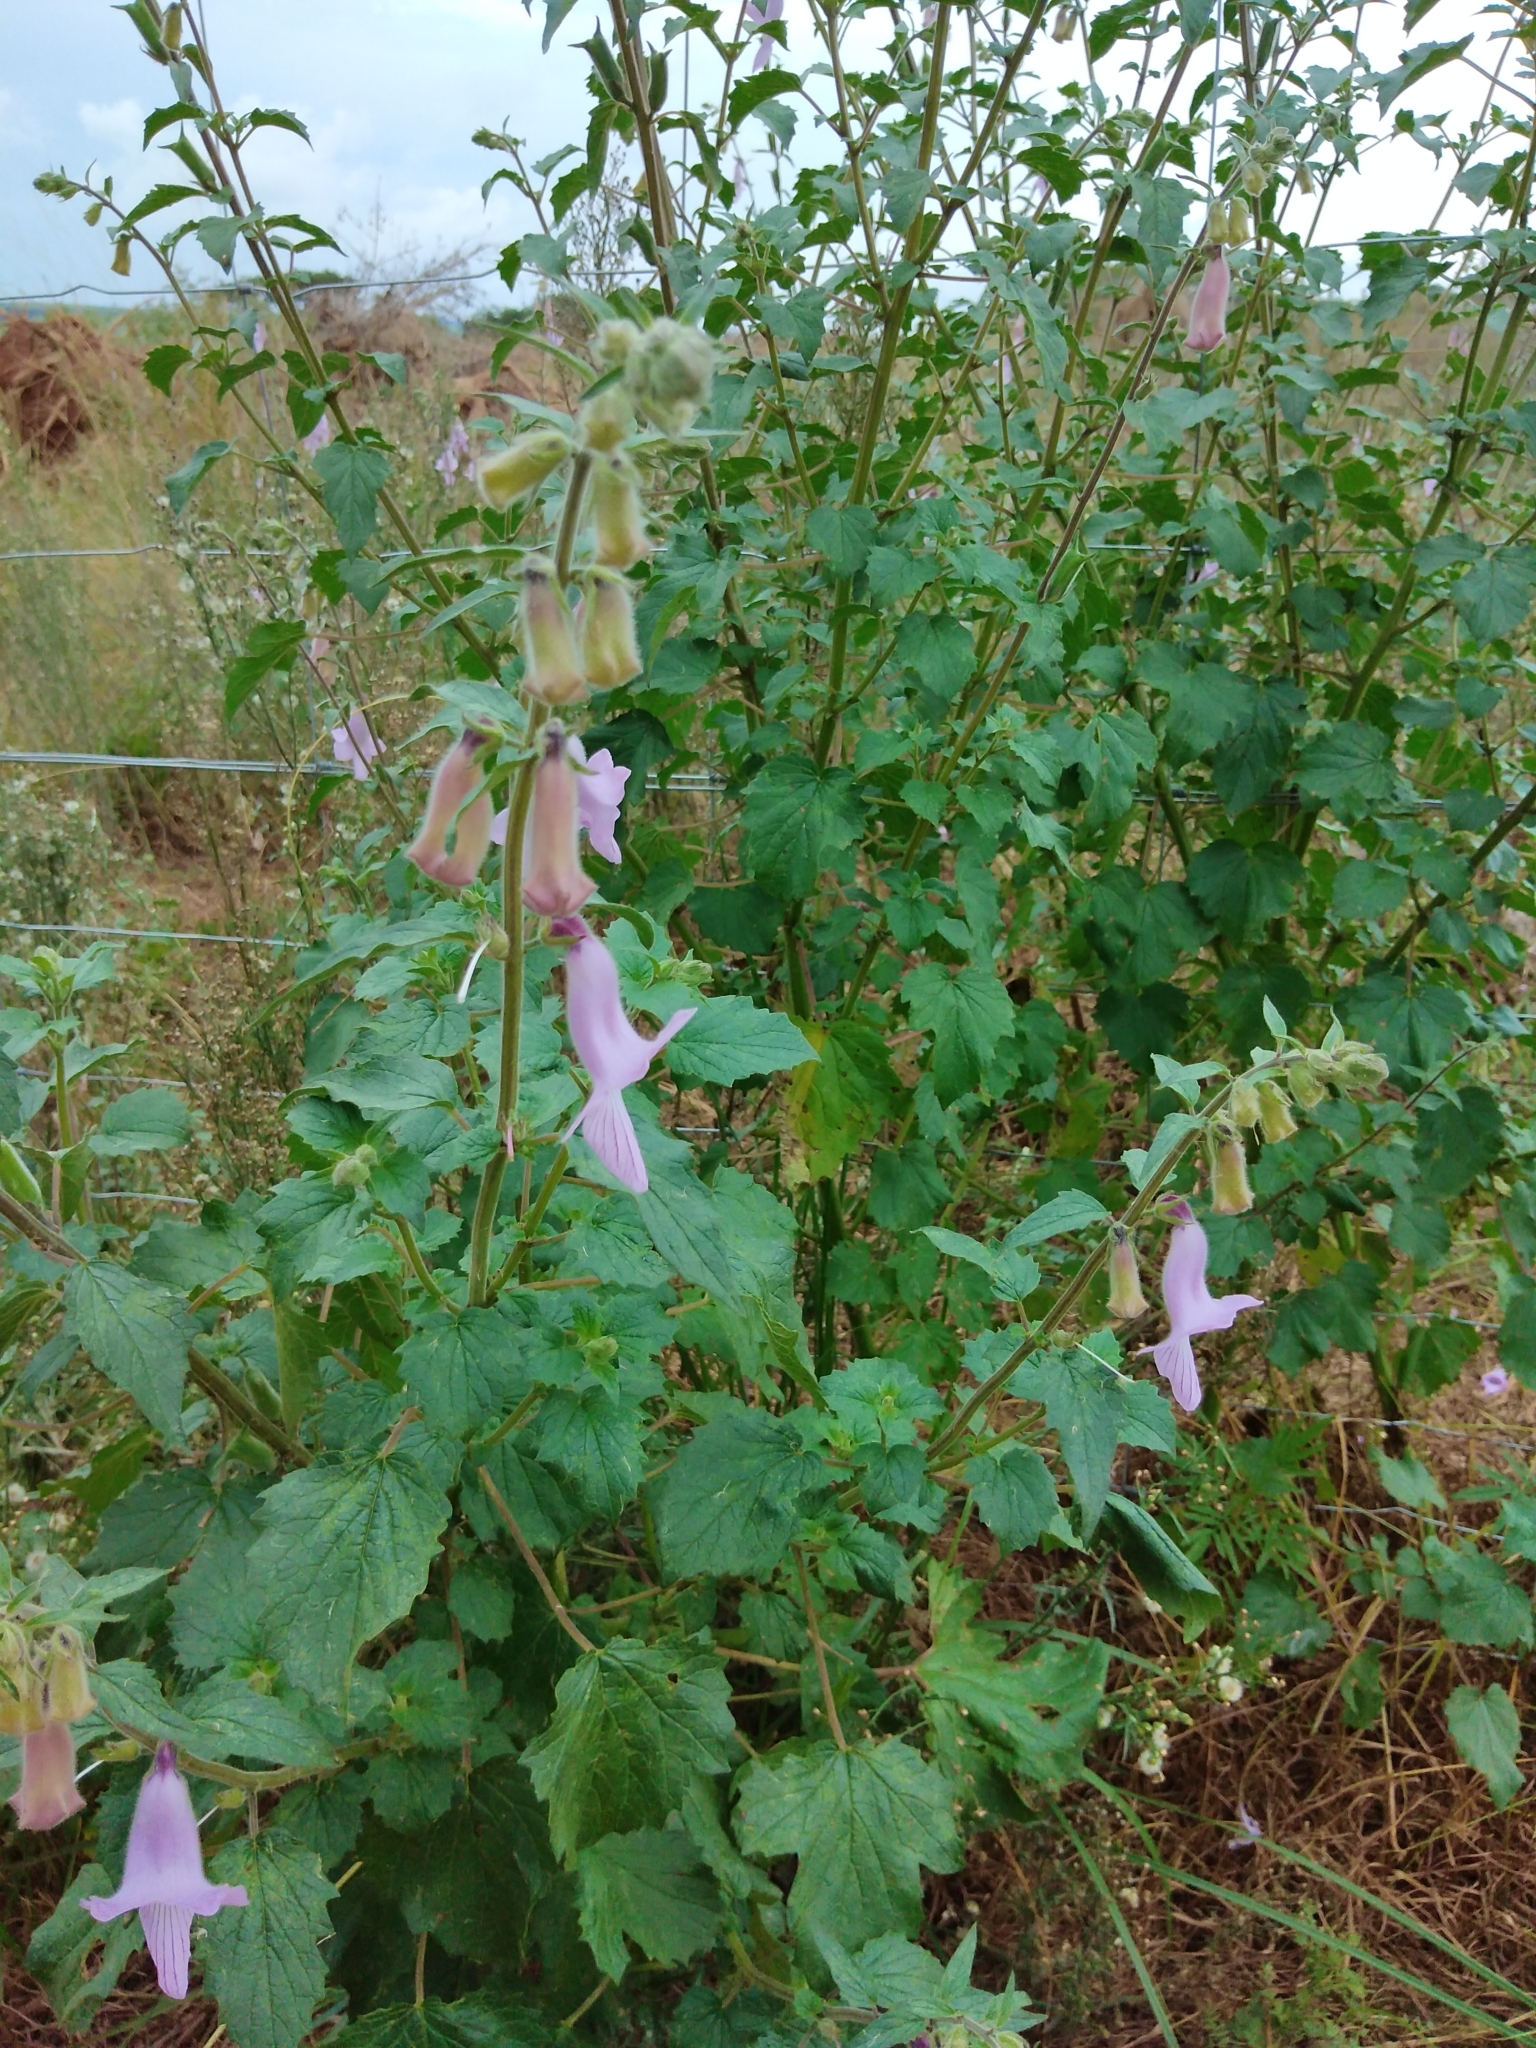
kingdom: Plantae
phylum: Tracheophyta
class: Magnoliopsida
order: Lamiales
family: Pedaliaceae
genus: Sesamum
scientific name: Sesamum trilobum
